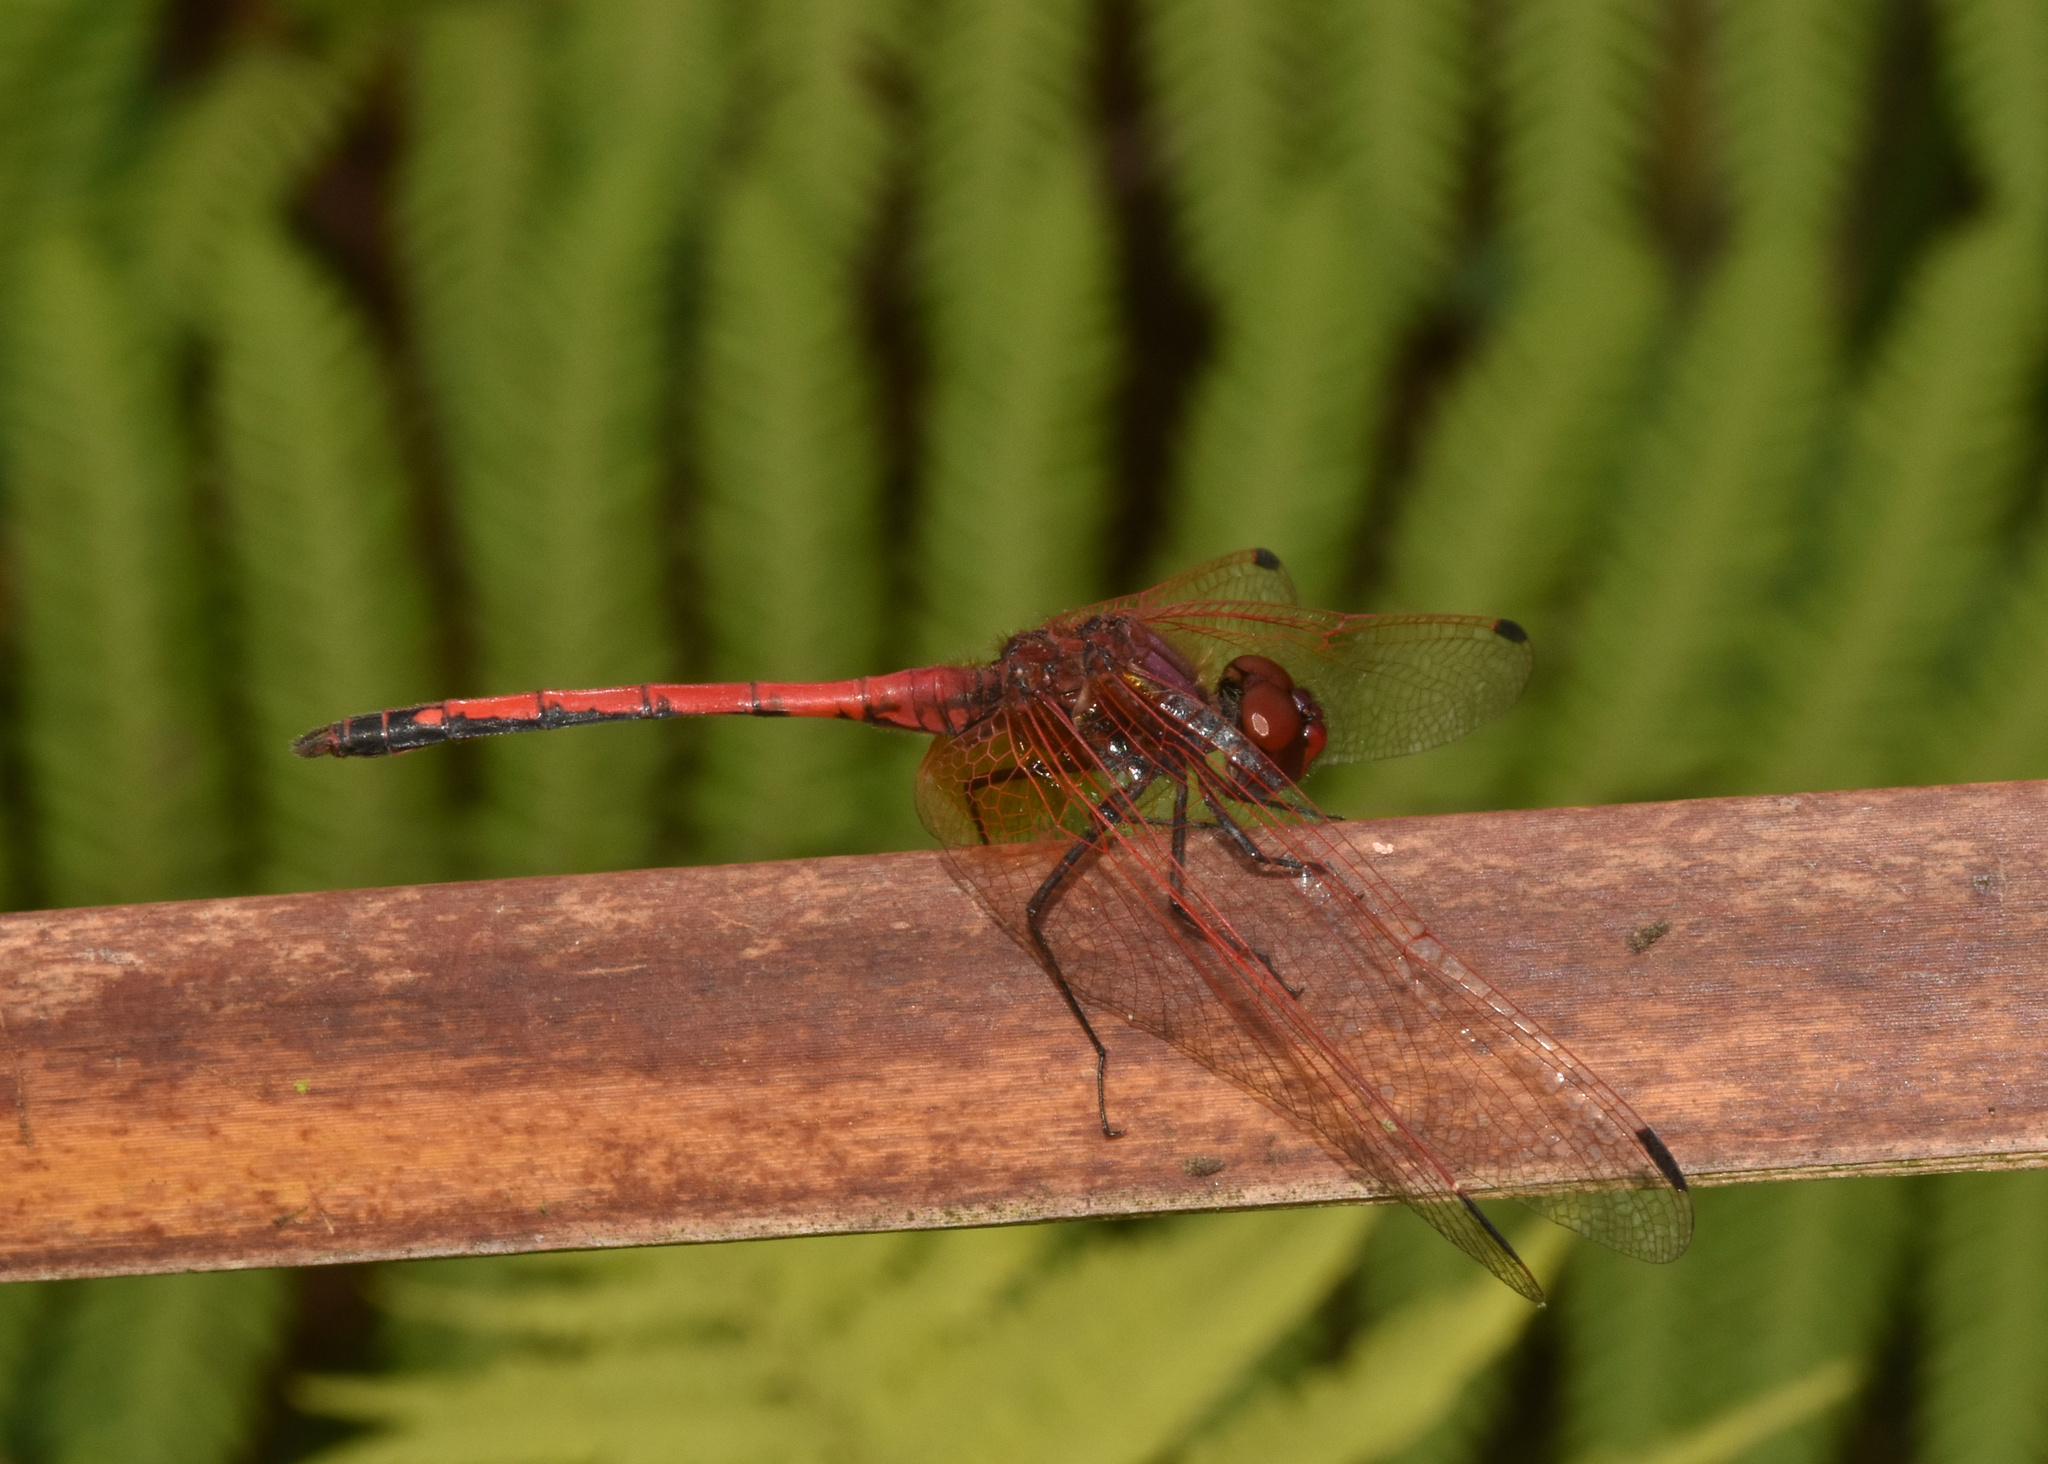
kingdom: Animalia
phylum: Arthropoda
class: Insecta
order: Odonata
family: Libellulidae
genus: Trithemis
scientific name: Trithemis arteriosa
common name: Red-veined dropwing
